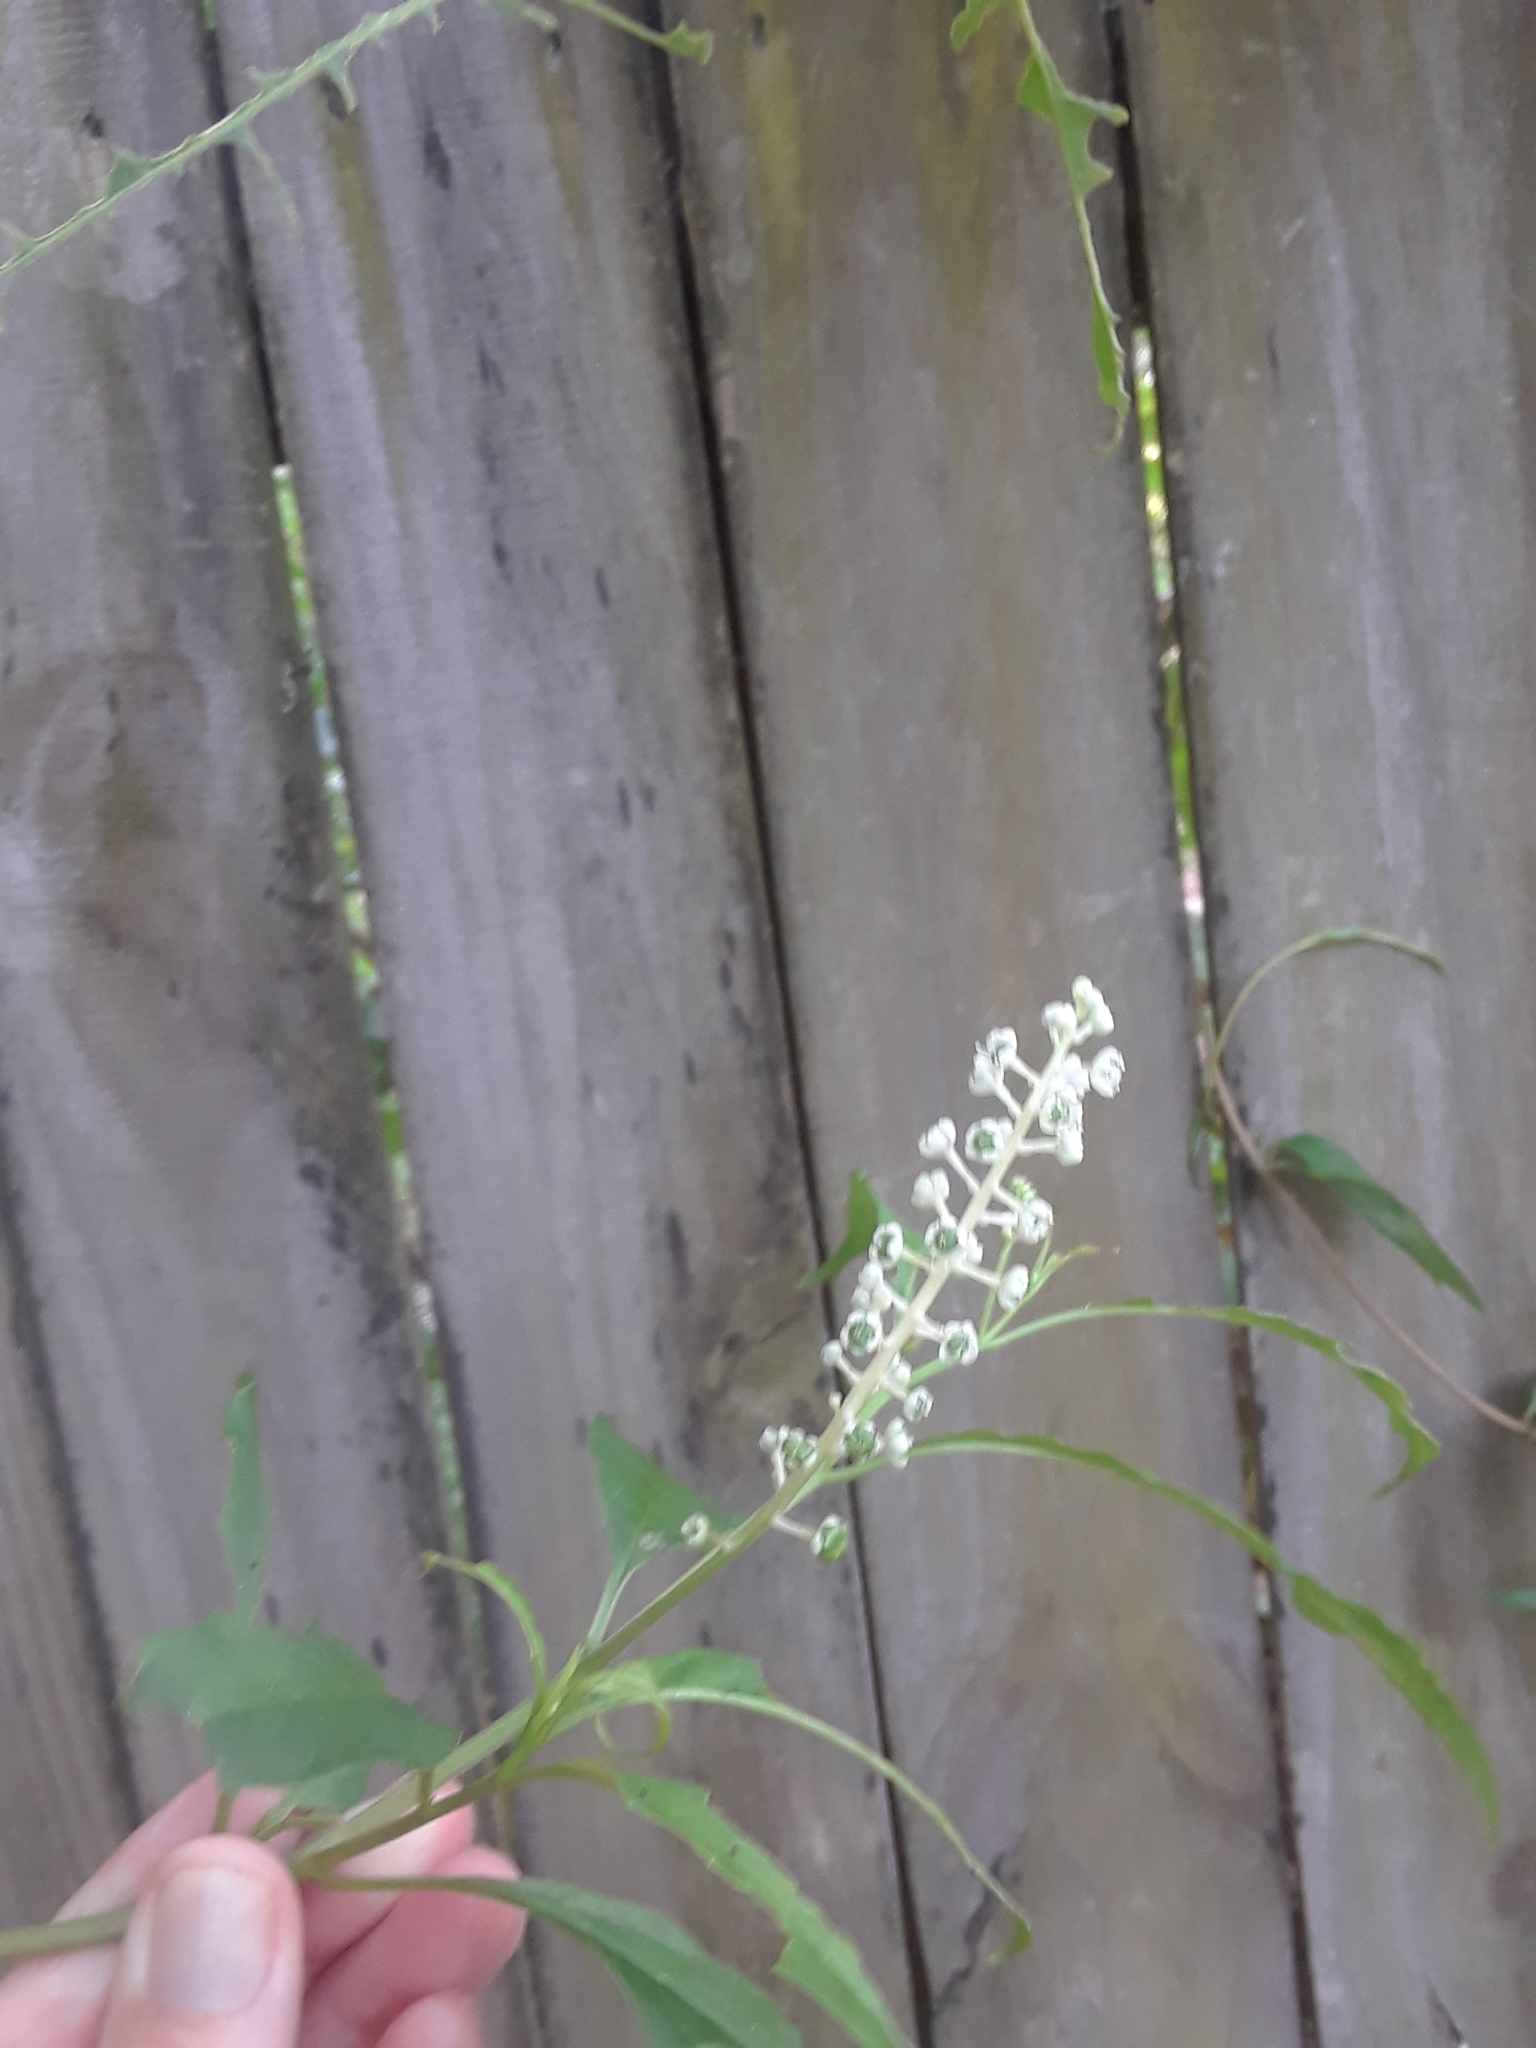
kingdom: Plantae
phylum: Tracheophyta
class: Magnoliopsida
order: Caryophyllales
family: Phytolaccaceae
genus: Phytolacca
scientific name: Phytolacca americana
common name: American pokeweed
